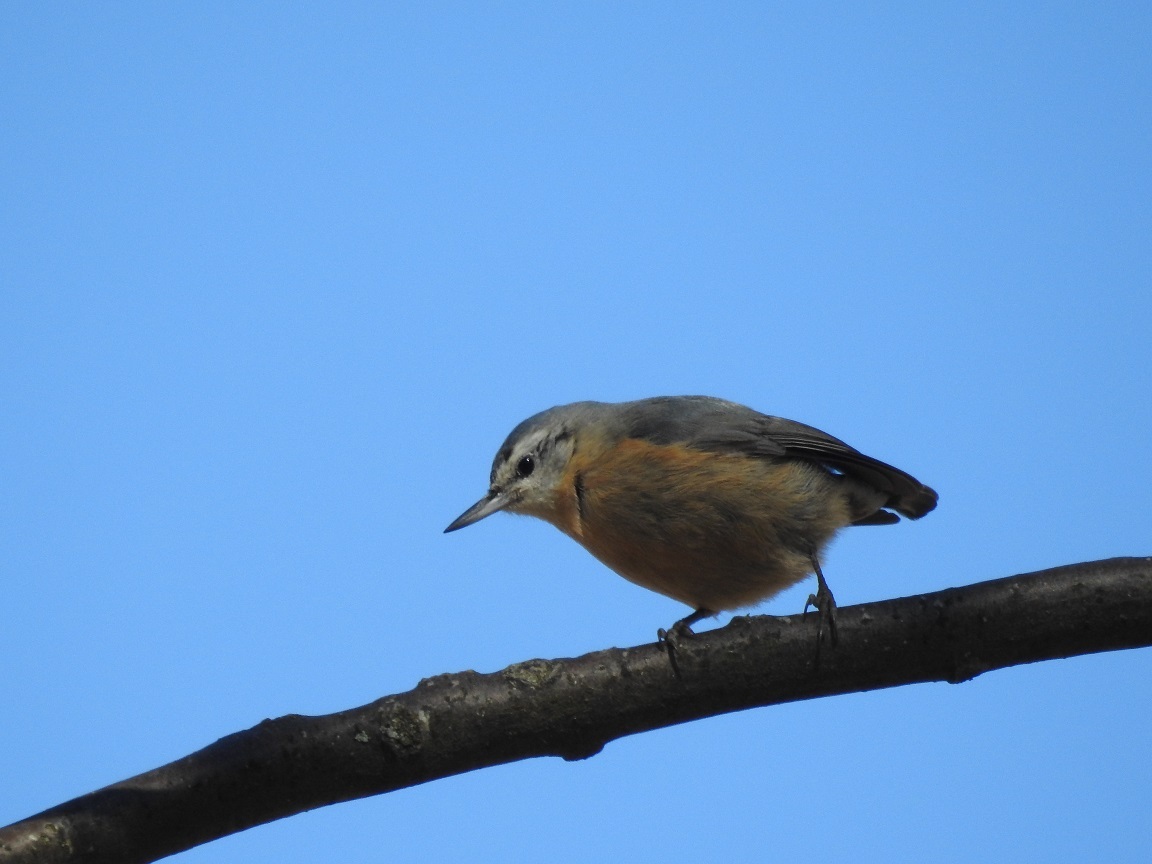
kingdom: Animalia
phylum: Chordata
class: Aves
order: Passeriformes
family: Sittidae
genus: Sitta
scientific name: Sitta ledanti
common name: Algerian nuthatch
